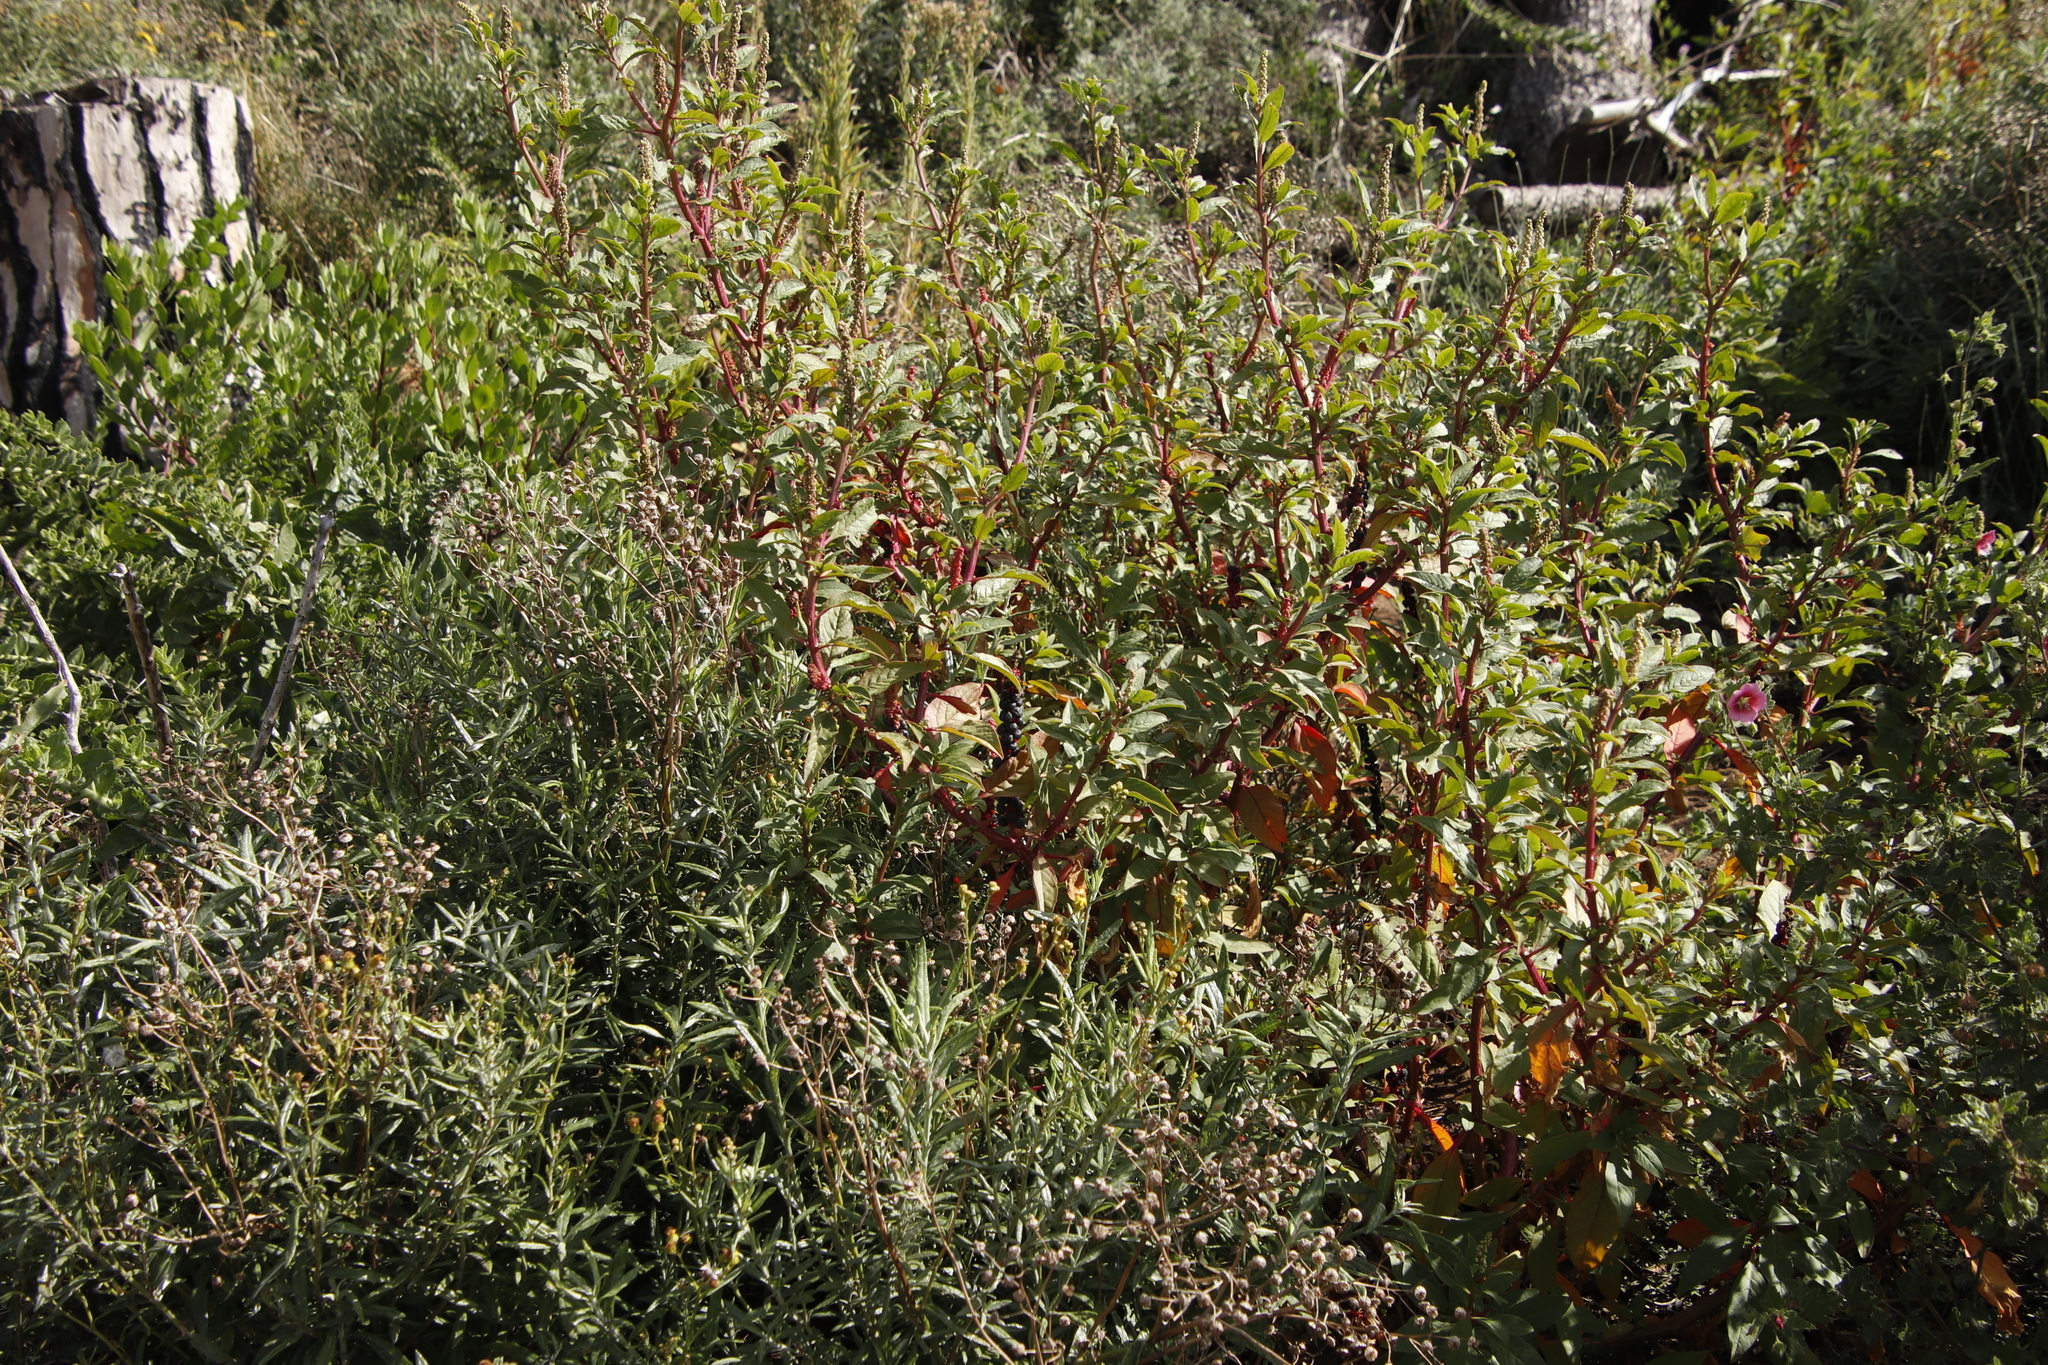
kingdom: Plantae
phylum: Tracheophyta
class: Magnoliopsida
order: Caryophyllales
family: Phytolaccaceae
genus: Phytolacca
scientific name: Phytolacca icosandra
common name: Button pokeweed
